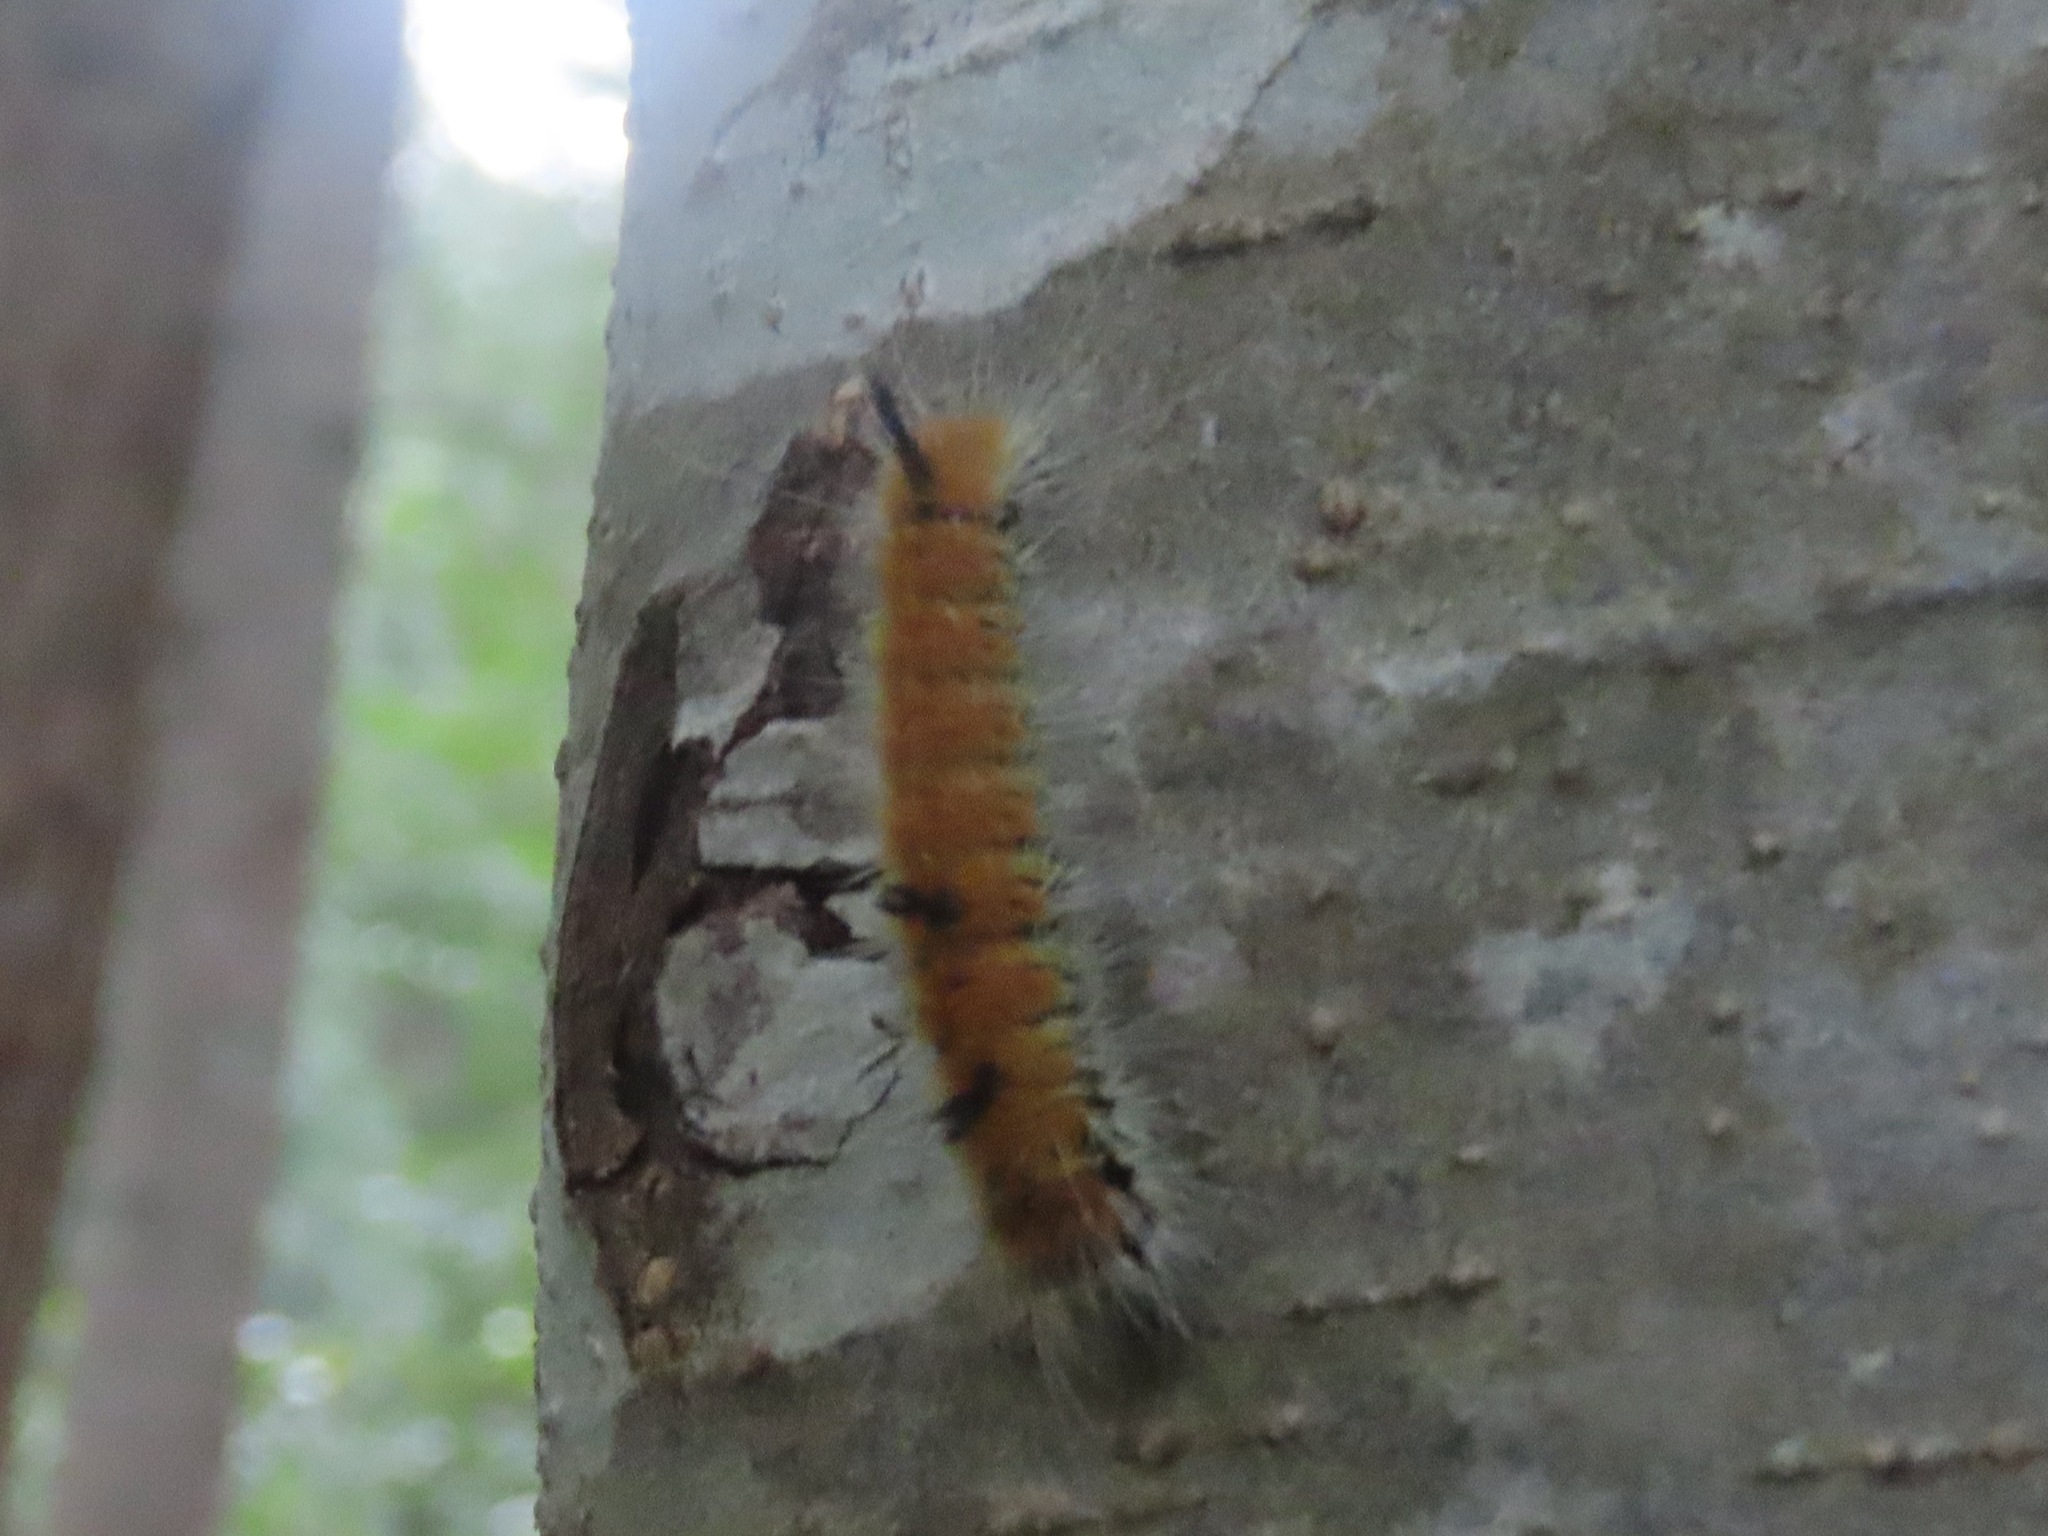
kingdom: Animalia
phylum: Arthropoda
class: Insecta
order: Lepidoptera
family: Noctuidae
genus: Acronicta
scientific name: Acronicta insita
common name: Large gray dagger
